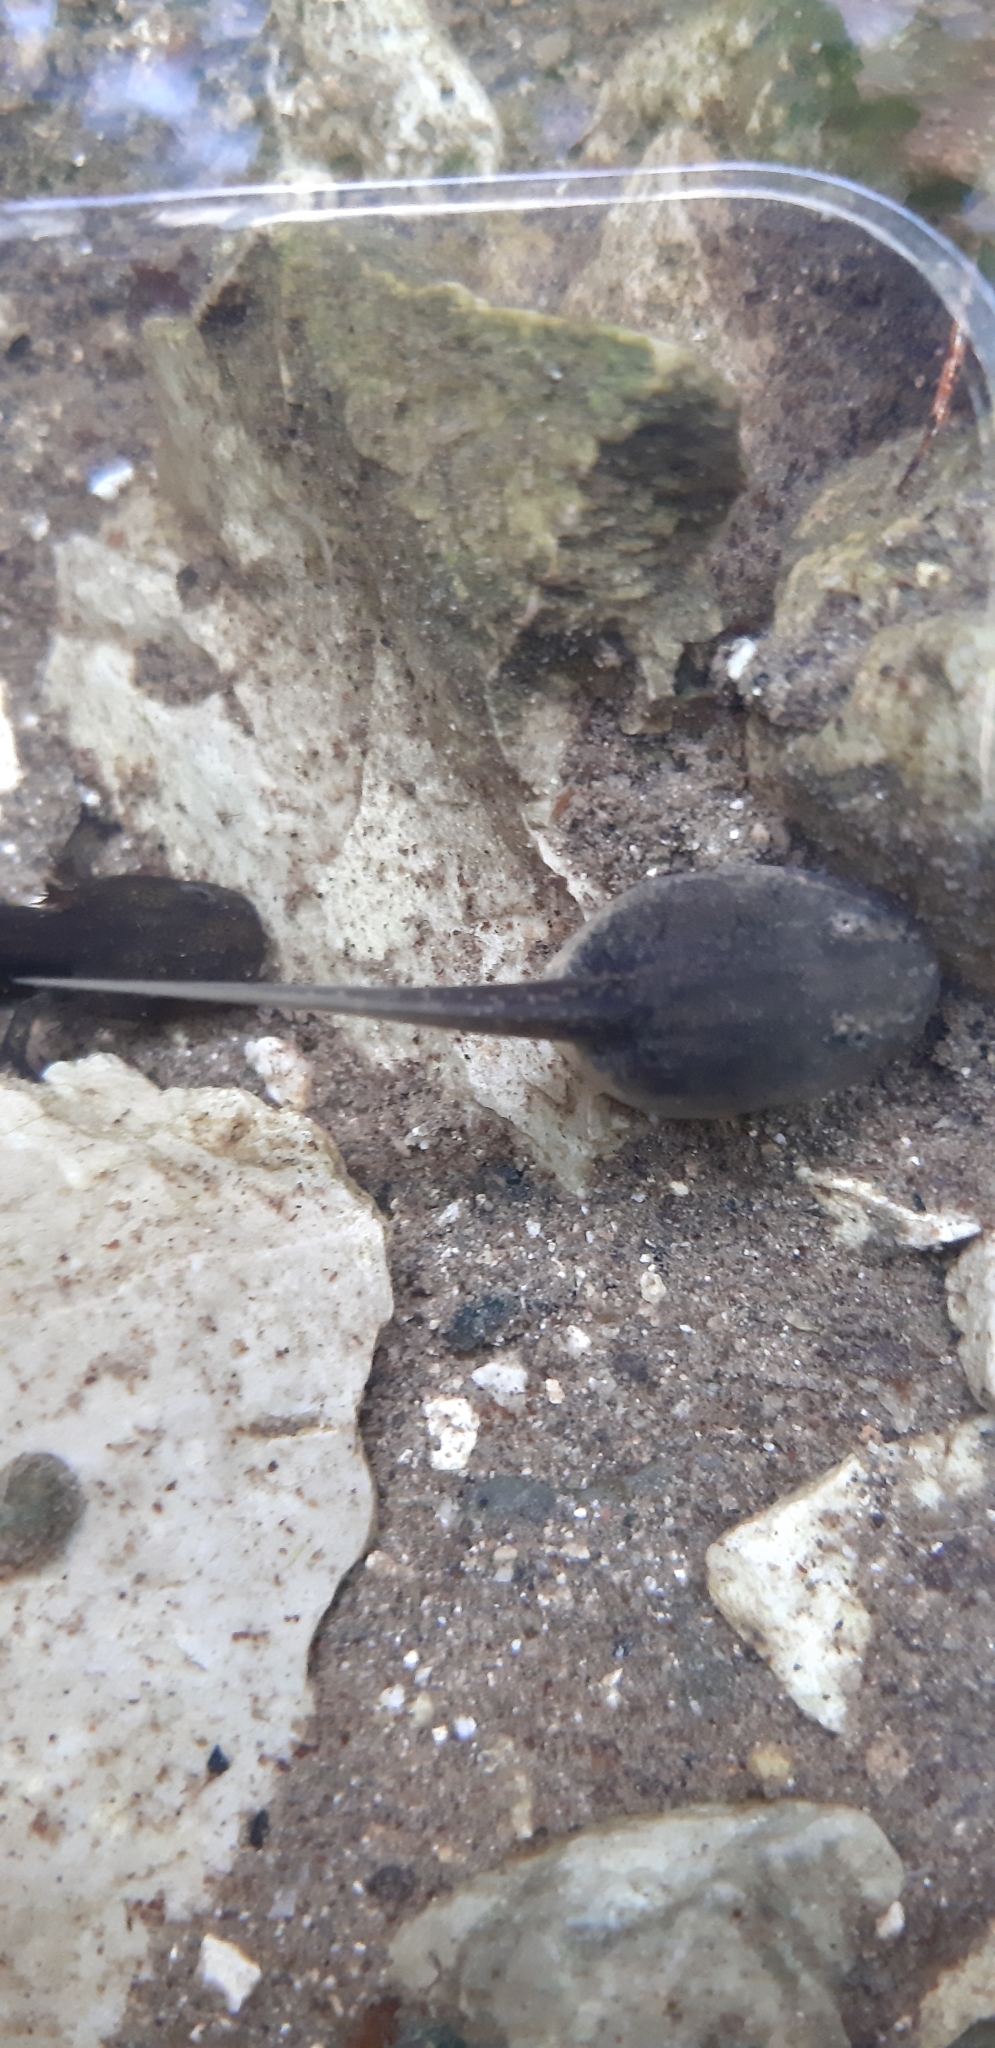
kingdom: Animalia
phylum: Chordata
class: Amphibia
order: Anura
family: Ranidae
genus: Rana
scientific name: Rana italica
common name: Italian stream frog
